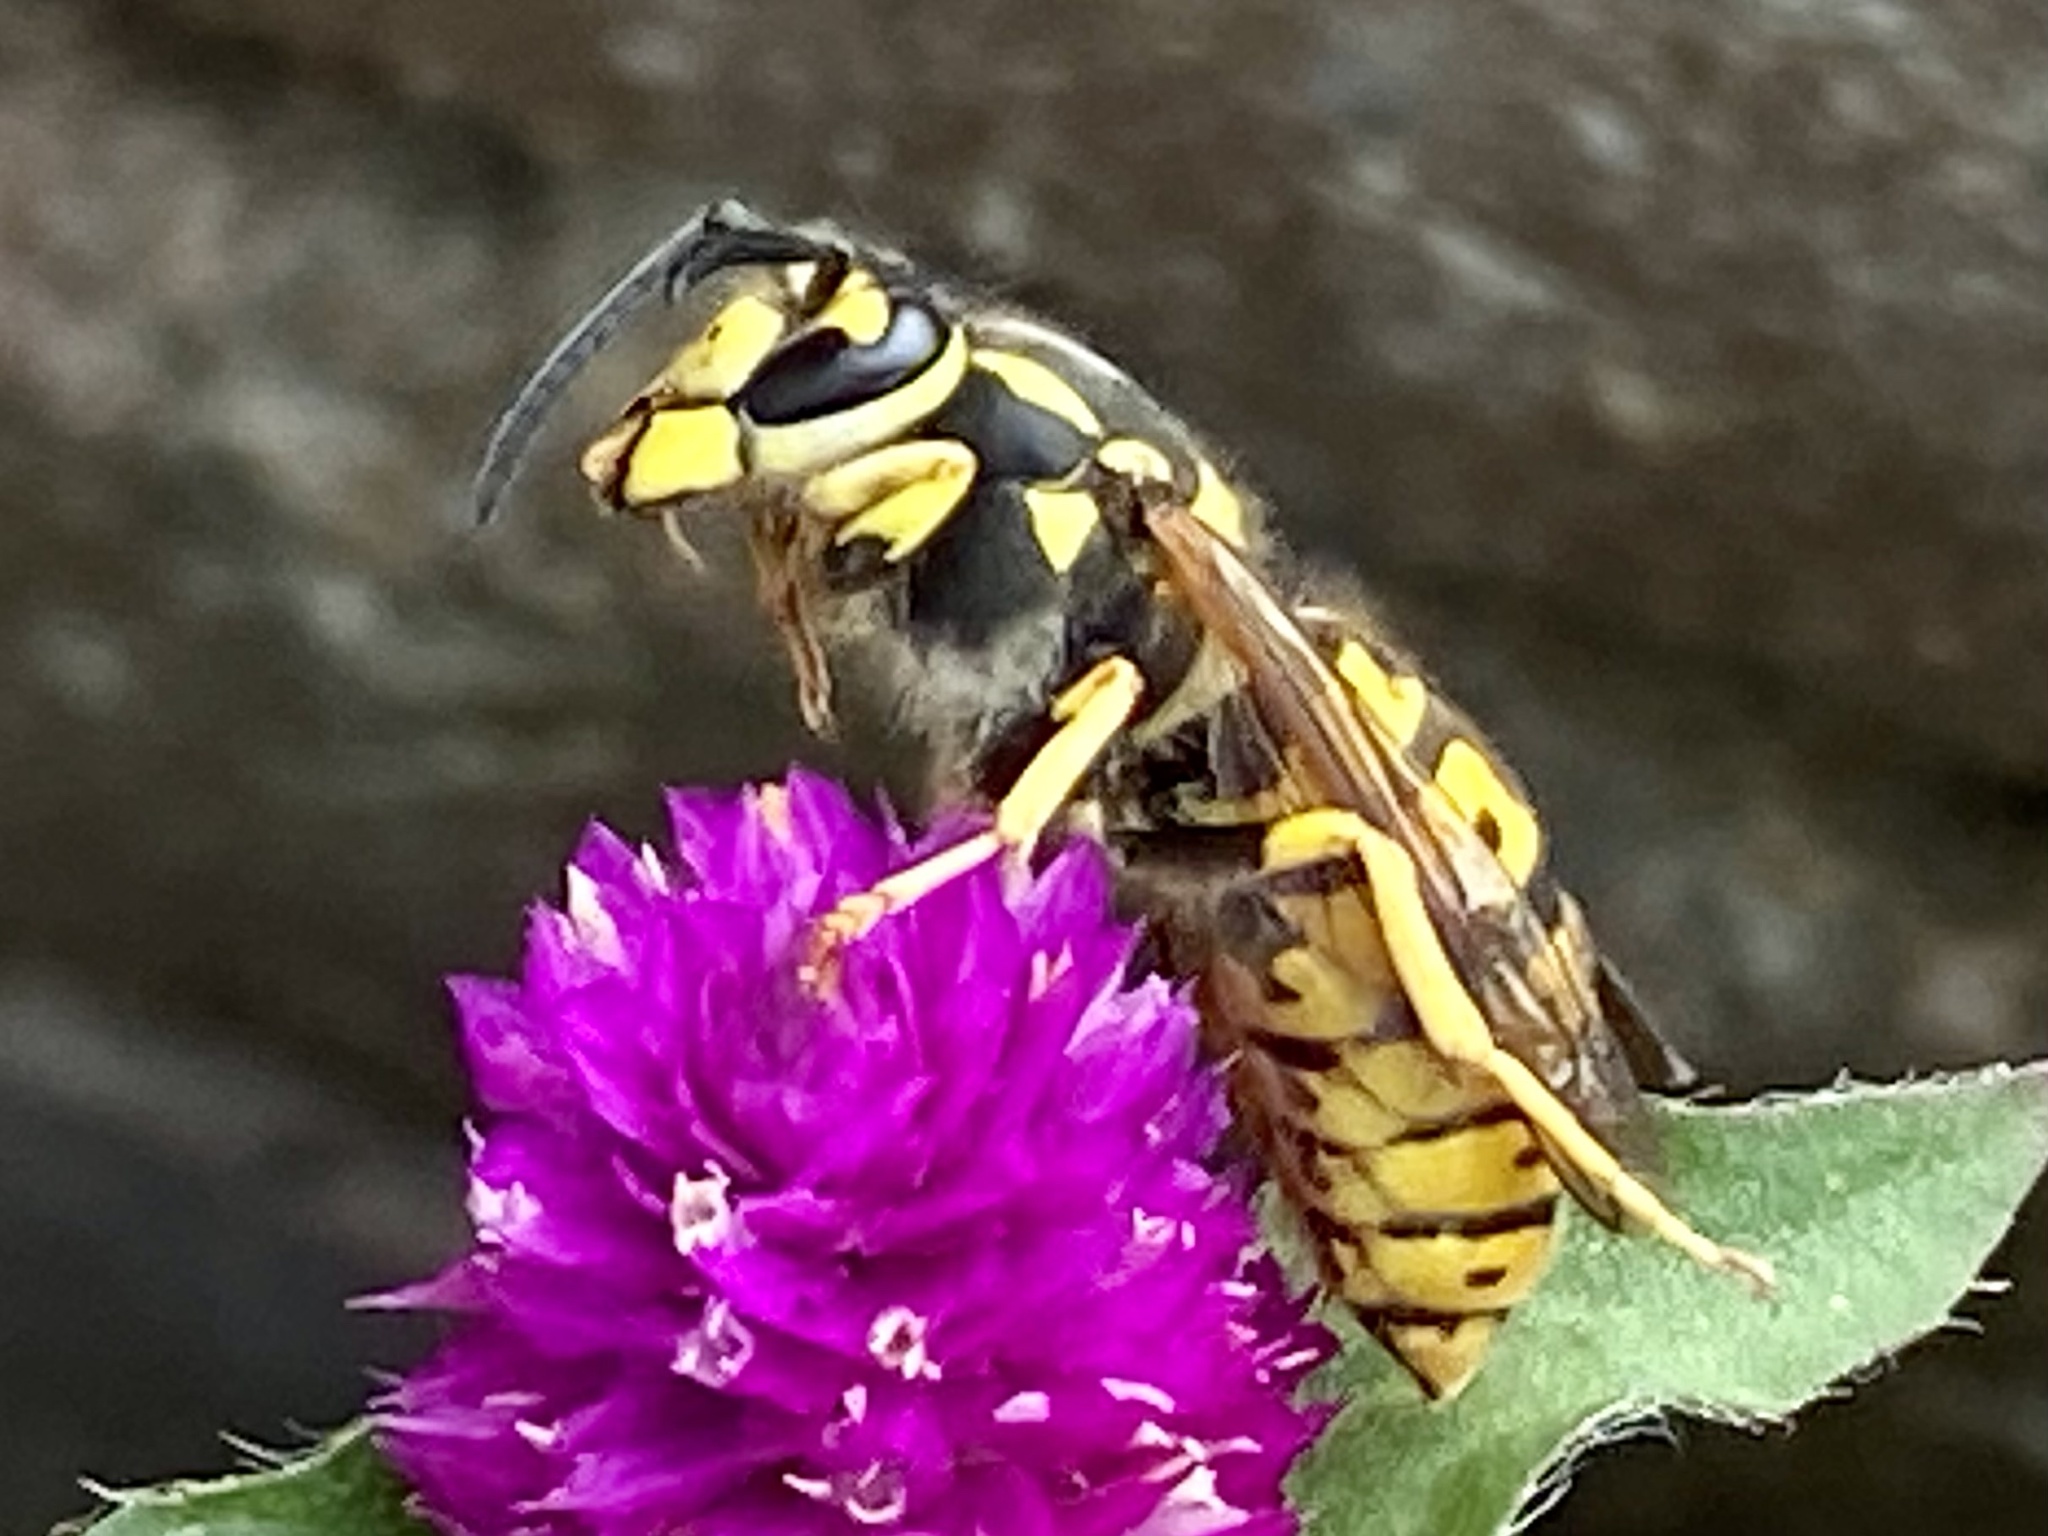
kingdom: Animalia
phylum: Arthropoda
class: Insecta
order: Hymenoptera
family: Vespidae
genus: Vespula
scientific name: Vespula germanica
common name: German wasp
